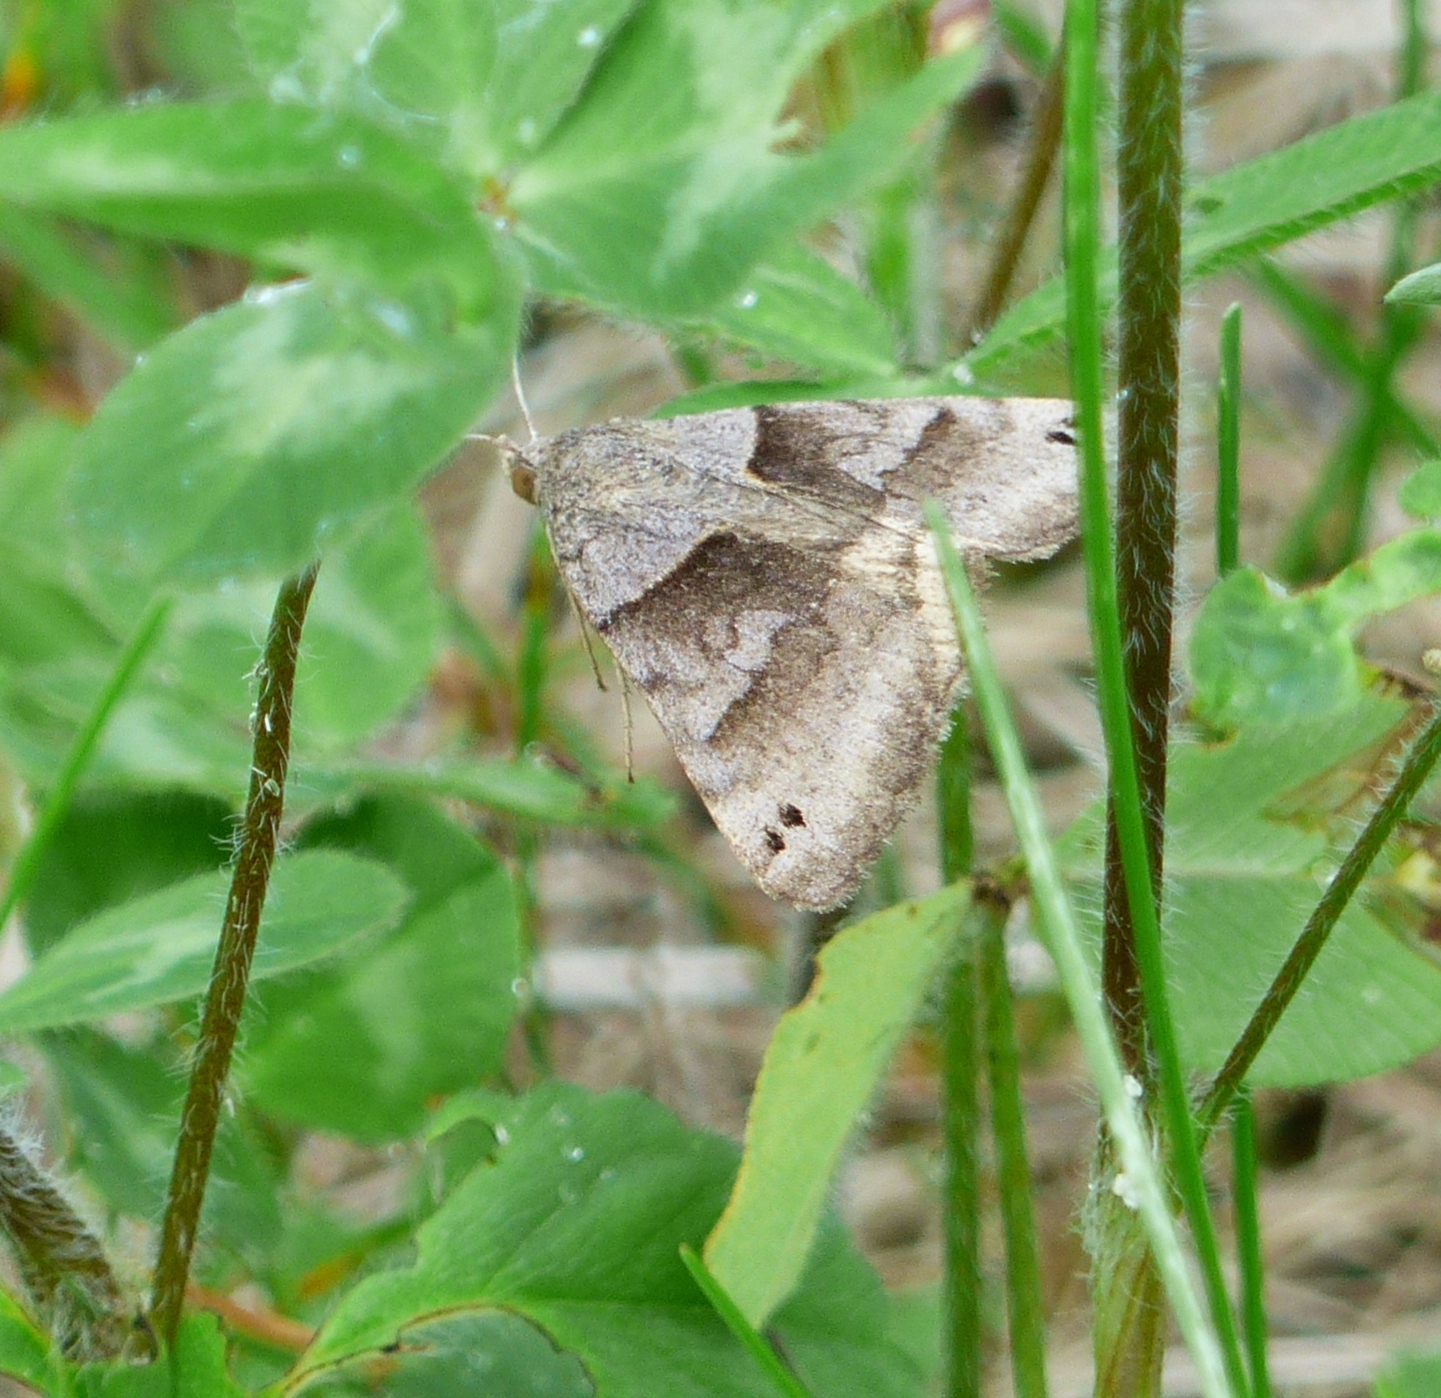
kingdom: Animalia
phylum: Arthropoda
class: Insecta
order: Lepidoptera
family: Erebidae
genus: Caenurgina
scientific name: Caenurgina erechtea
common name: Forage looper moth
